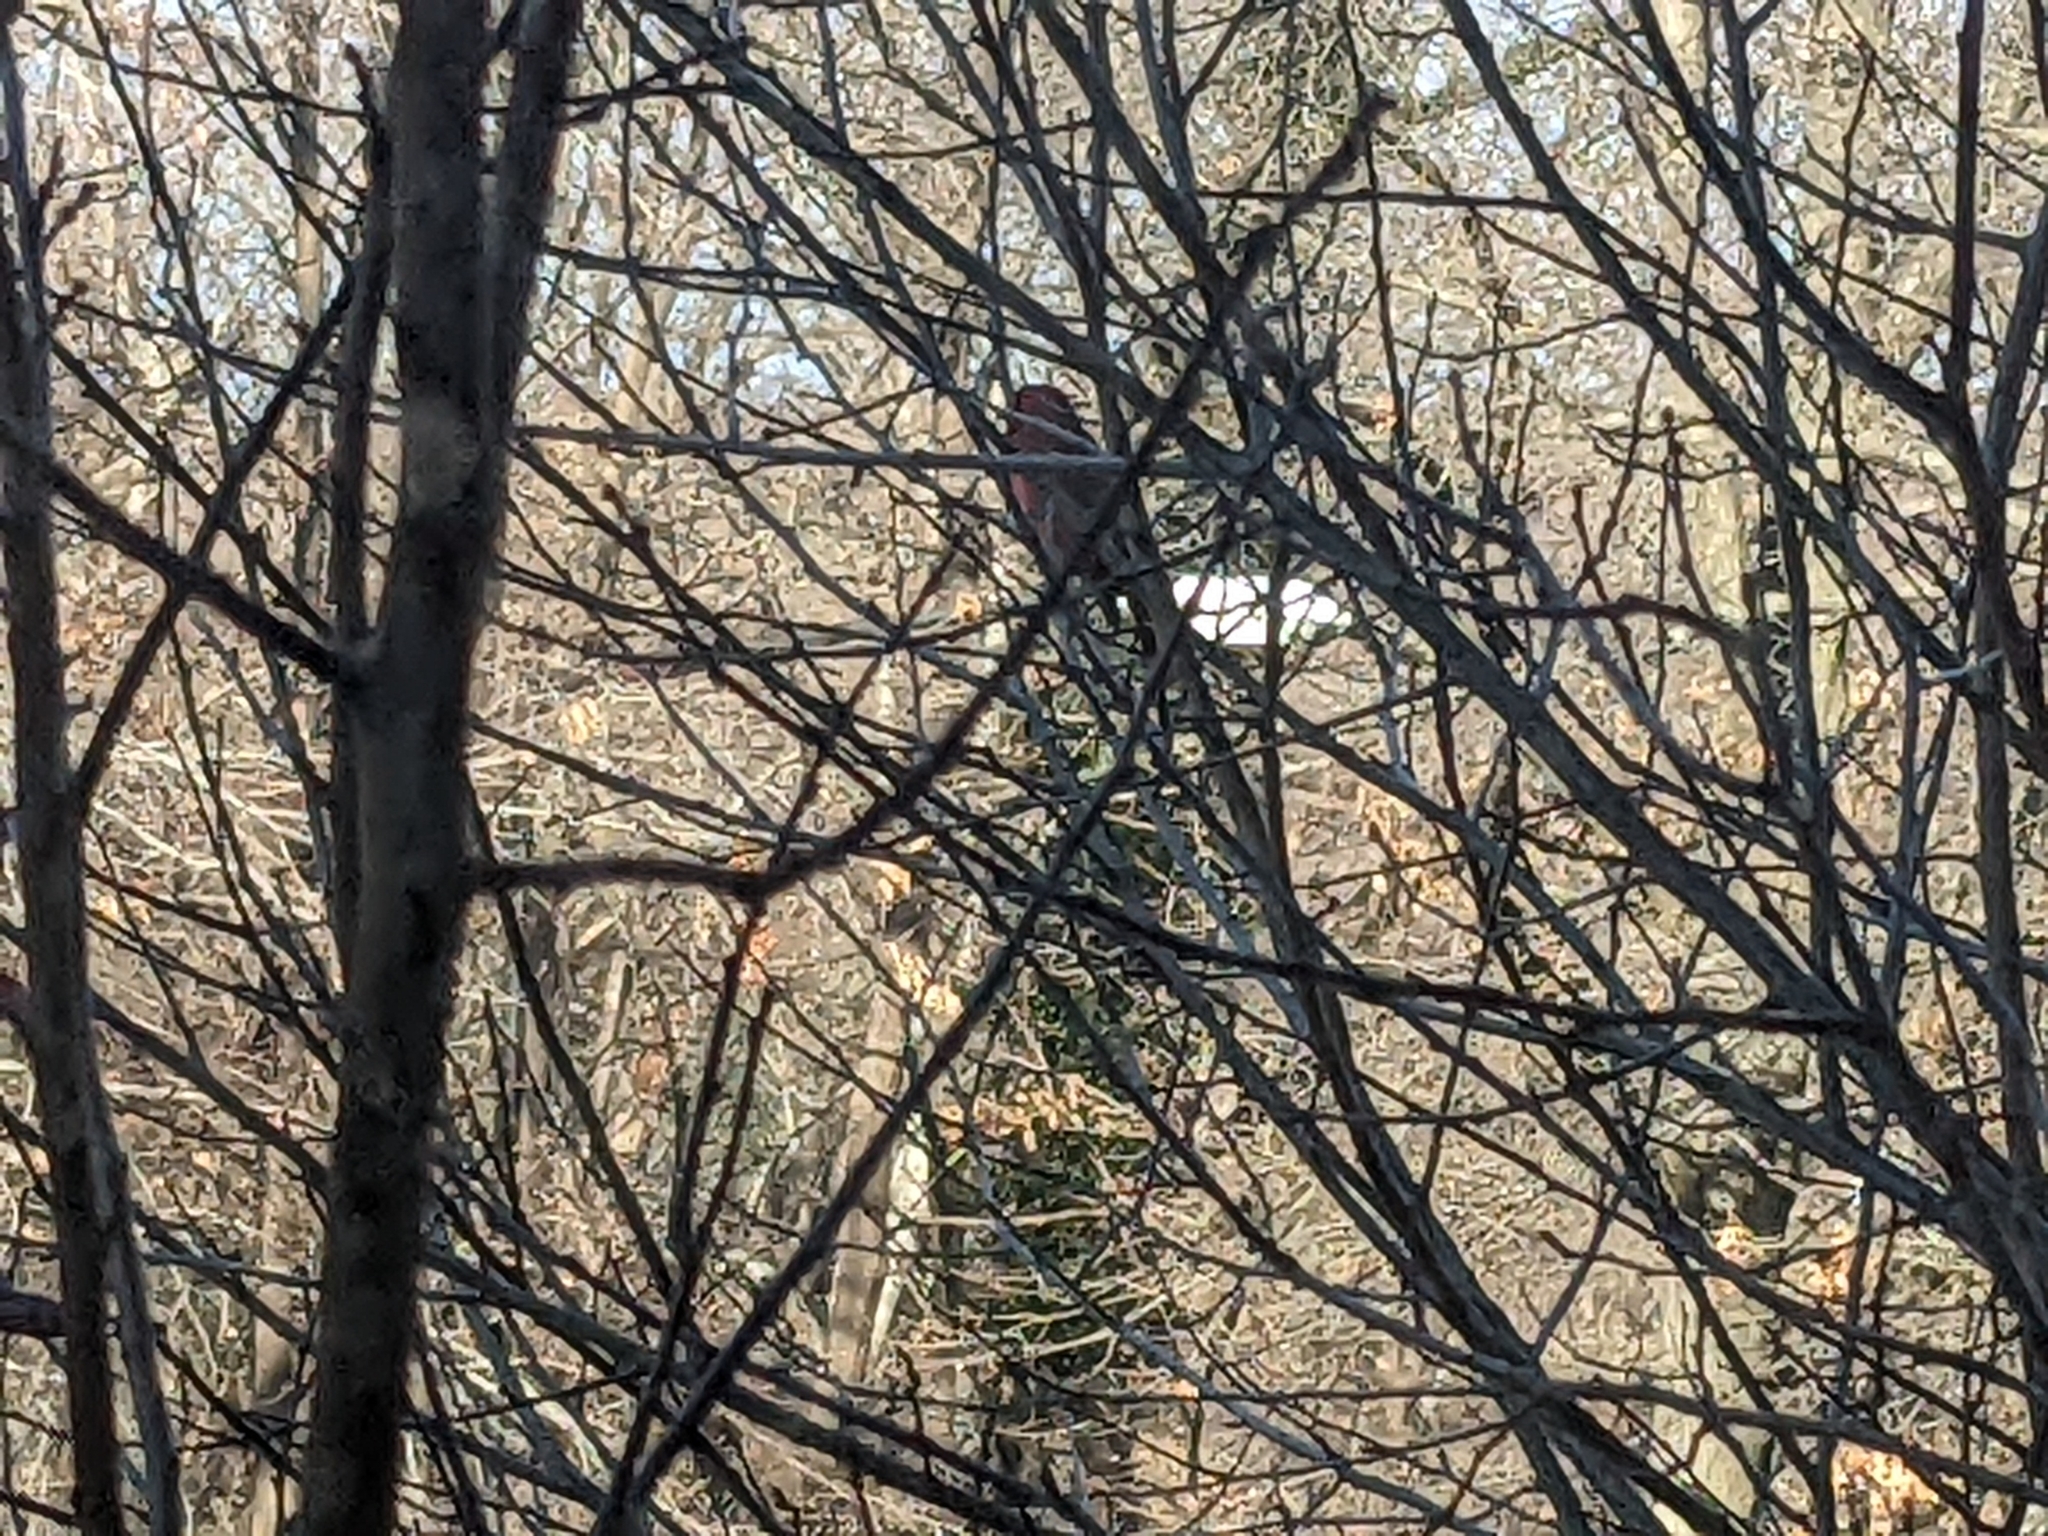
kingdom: Animalia
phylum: Chordata
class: Aves
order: Passeriformes
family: Cardinalidae
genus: Cardinalis
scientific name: Cardinalis cardinalis
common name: Northern cardinal
